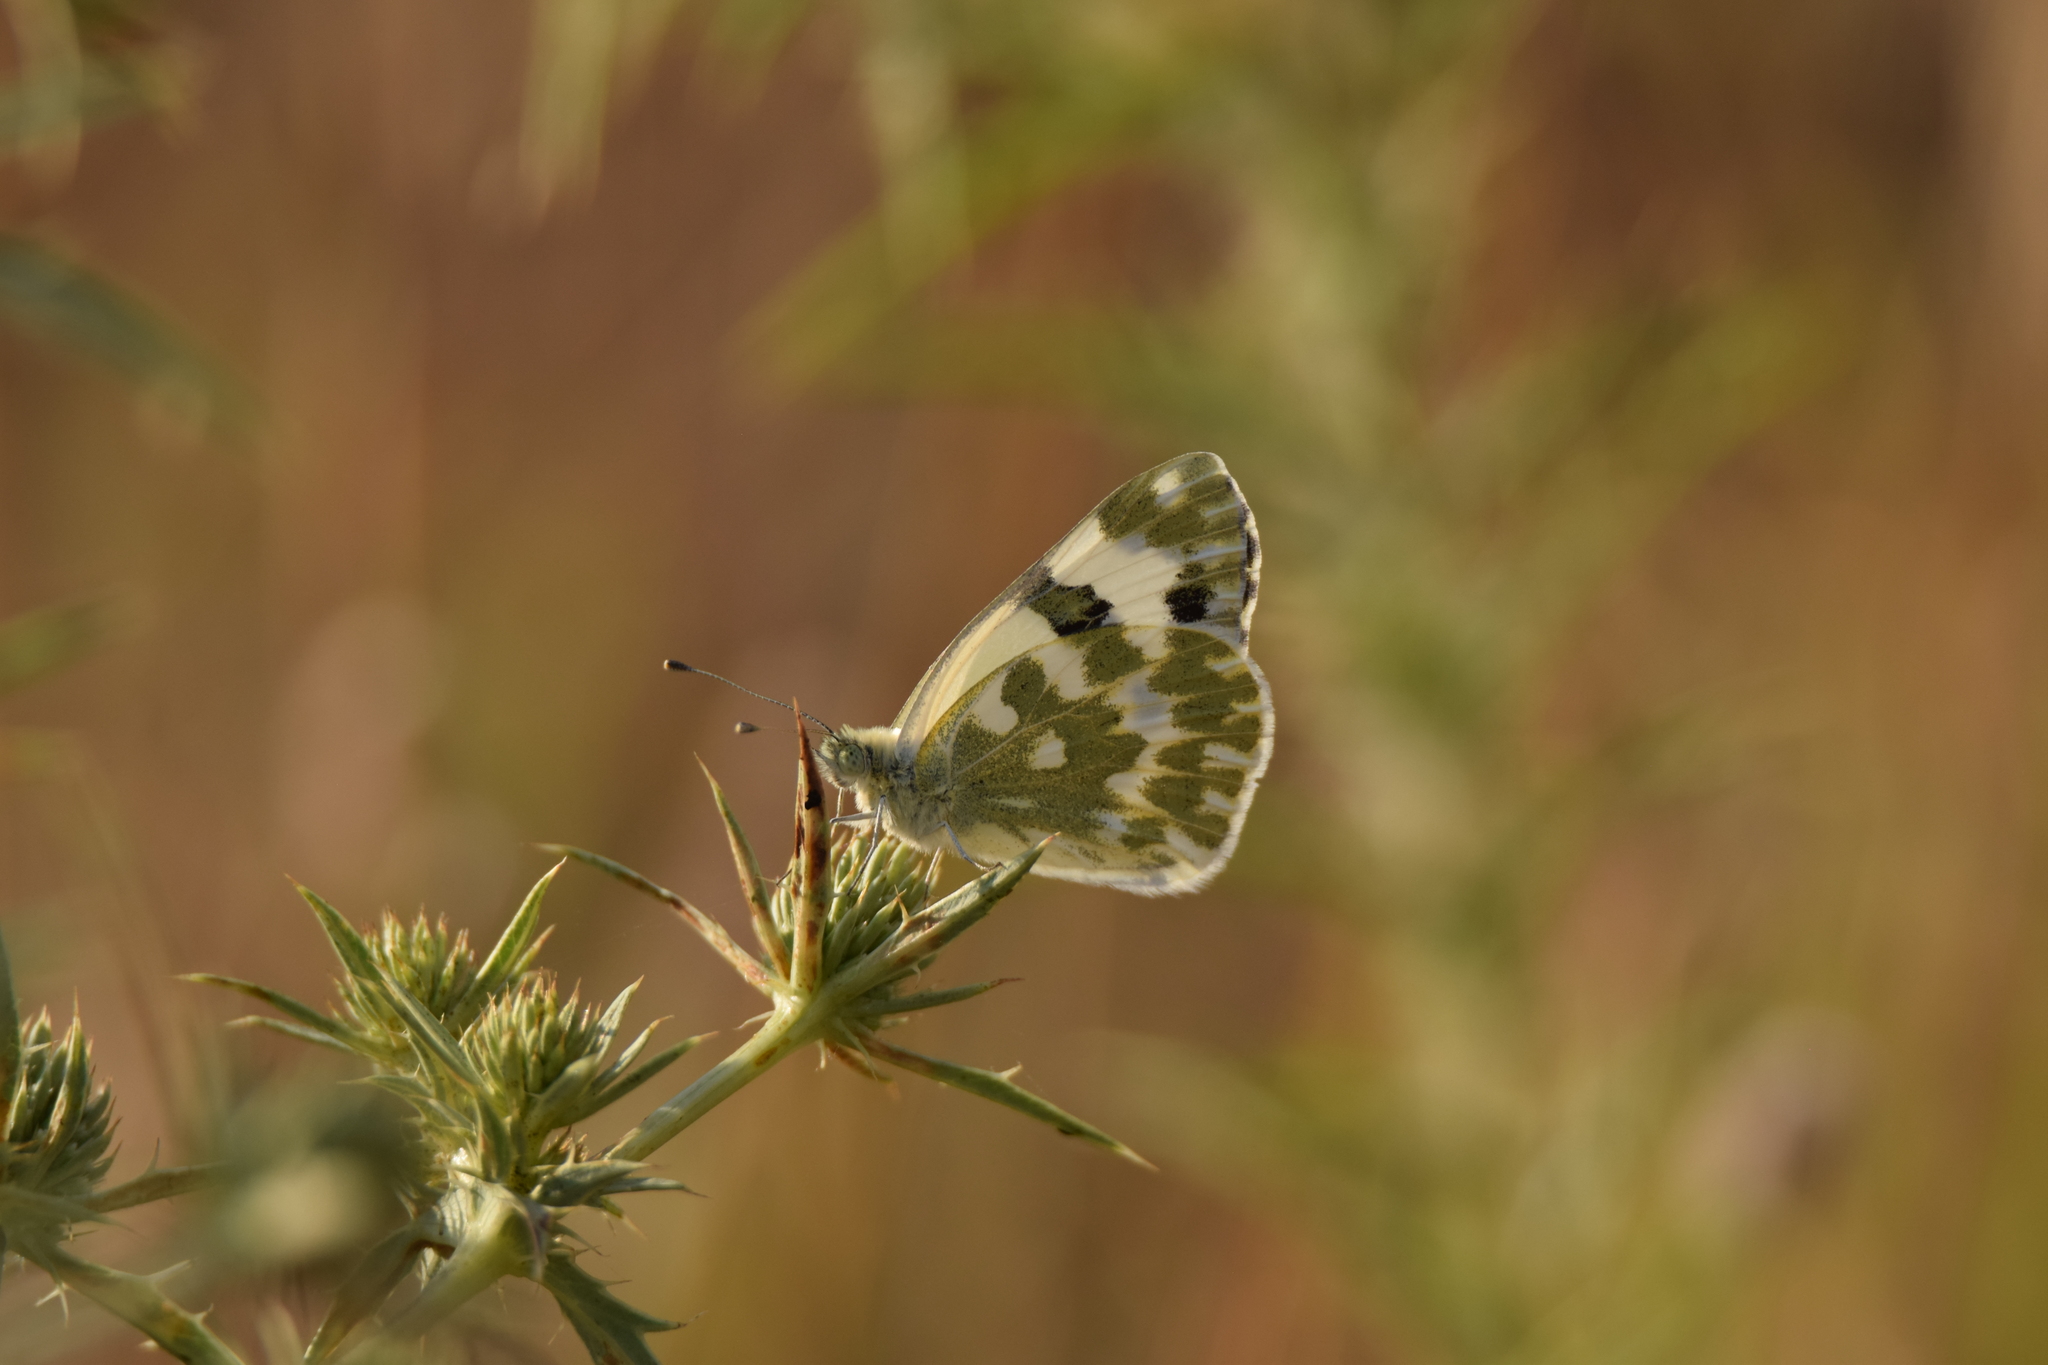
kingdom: Animalia
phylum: Arthropoda
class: Insecta
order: Lepidoptera
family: Pieridae
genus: Pontia
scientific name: Pontia daplidice
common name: Bath white
